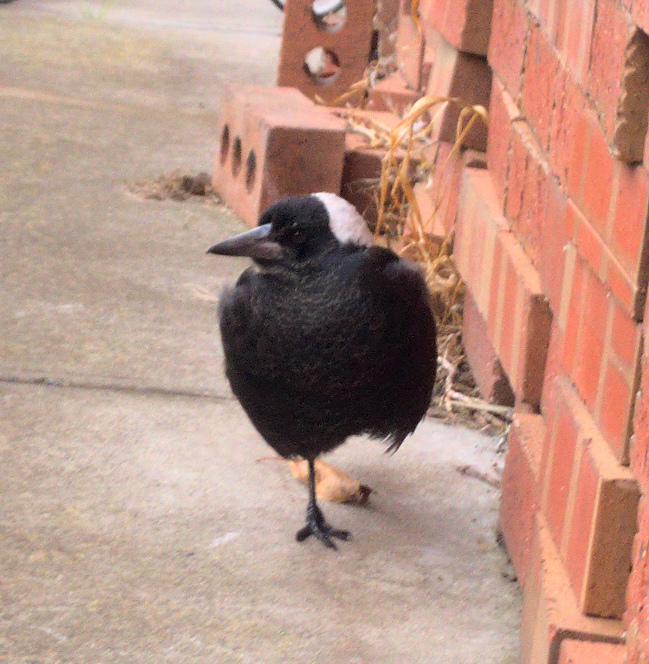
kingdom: Animalia
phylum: Chordata
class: Aves
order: Passeriformes
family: Cracticidae
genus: Gymnorhina
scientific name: Gymnorhina tibicen
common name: Australian magpie
